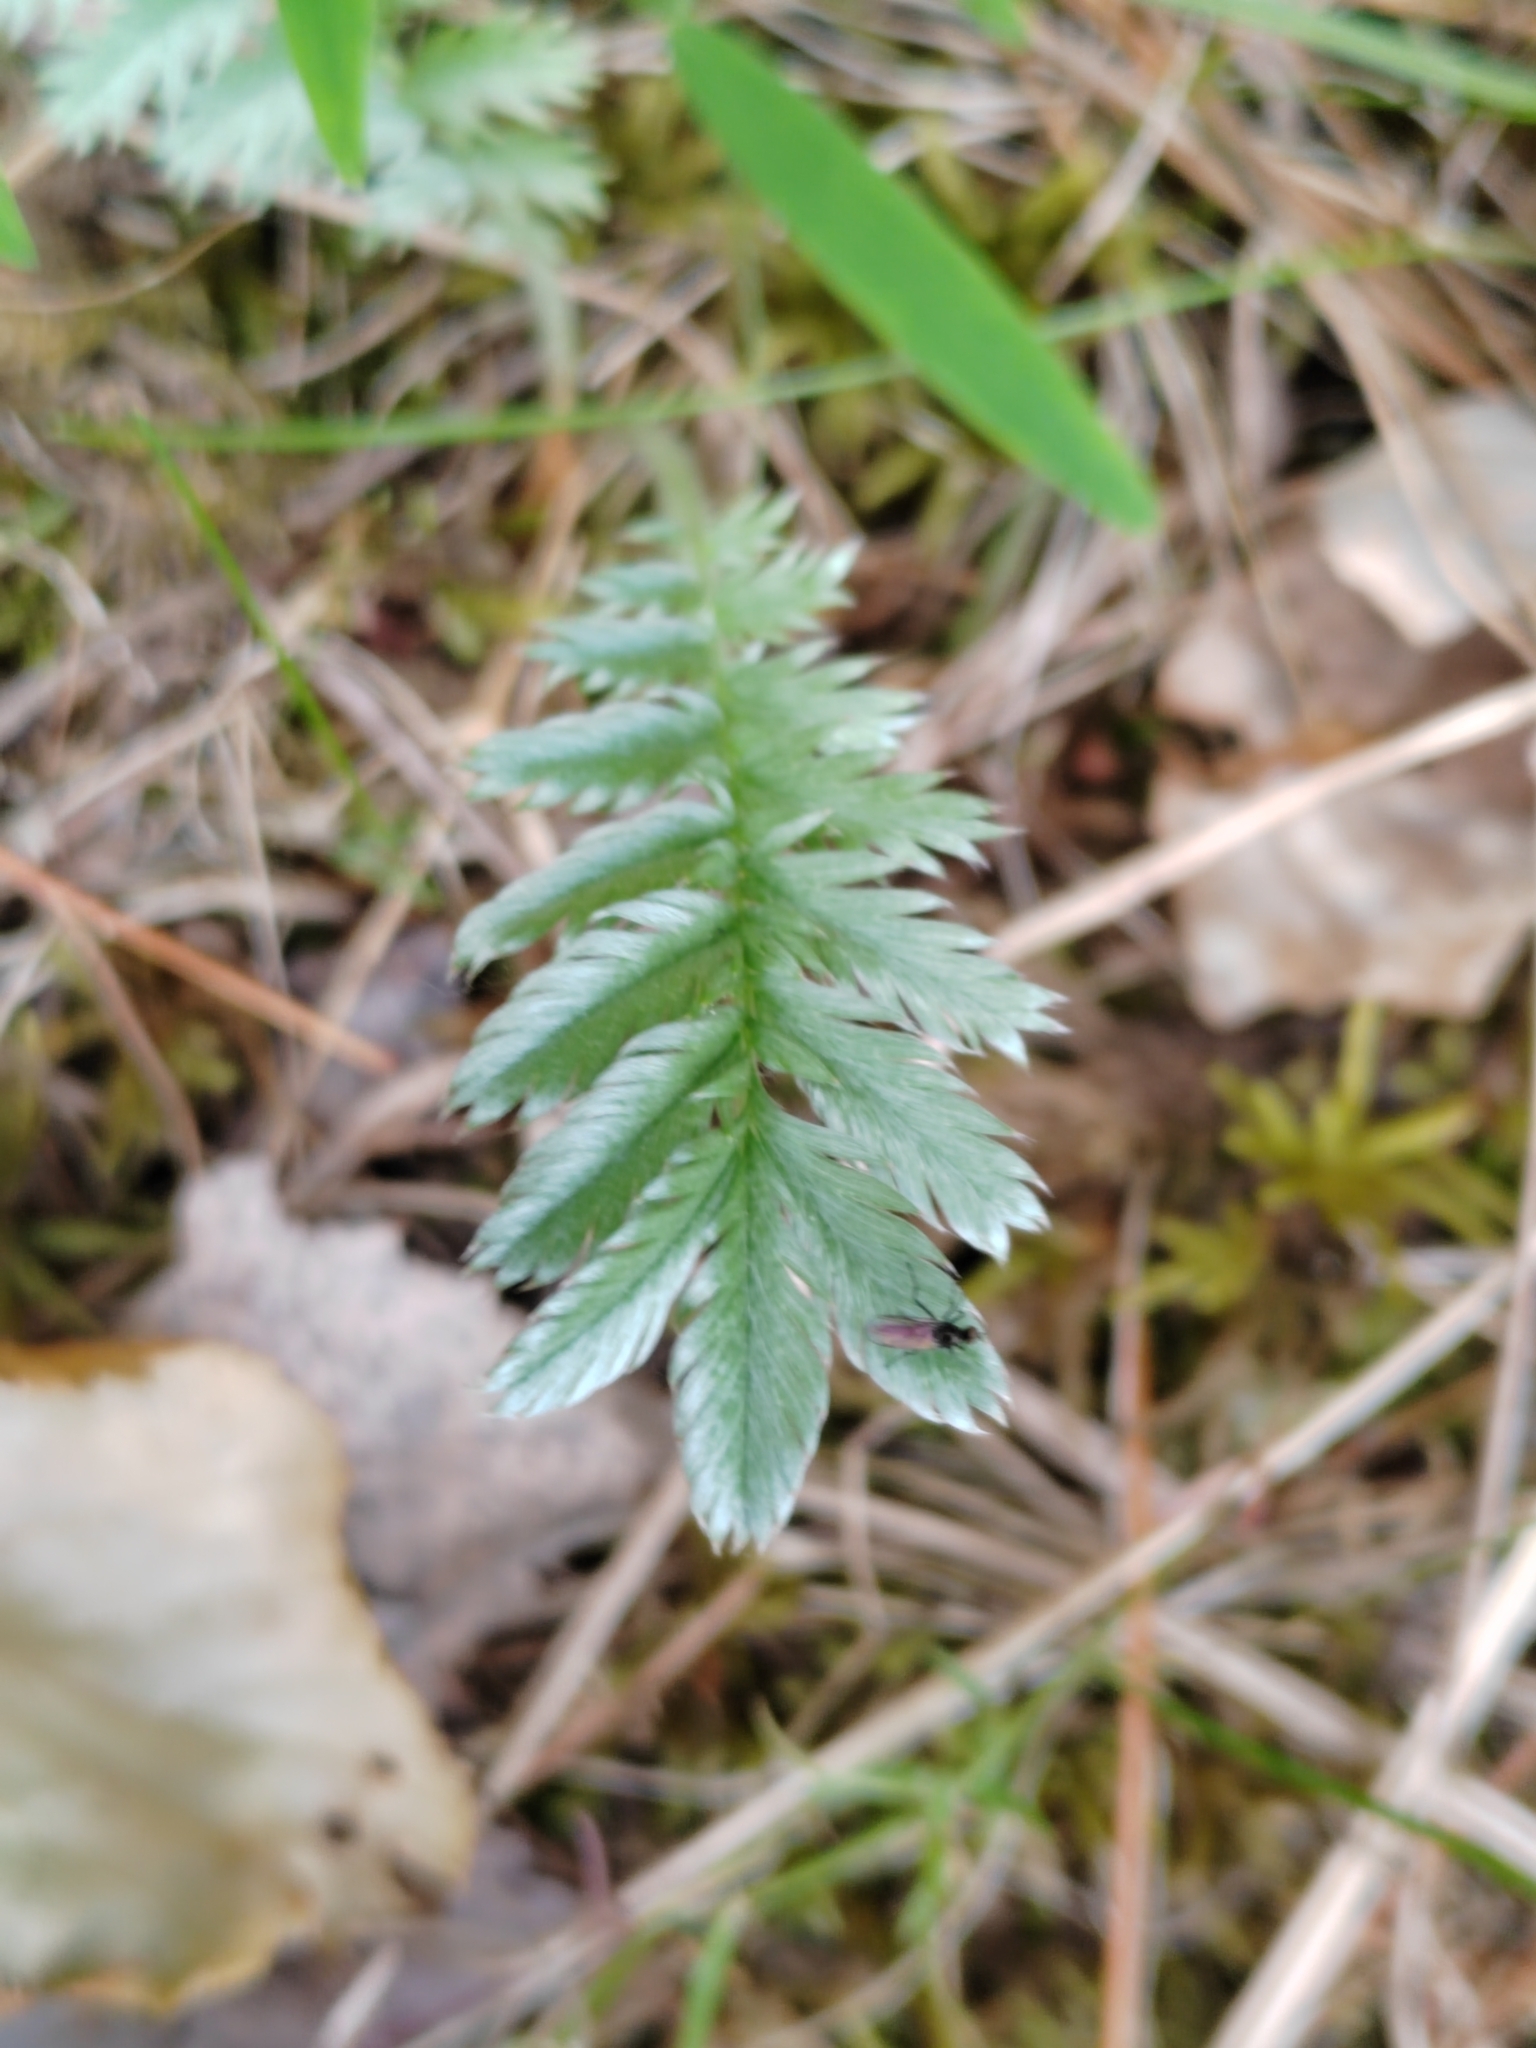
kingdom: Plantae
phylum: Tracheophyta
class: Magnoliopsida
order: Rosales
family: Rosaceae
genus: Argentina
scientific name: Argentina anserina
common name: Common silverweed
